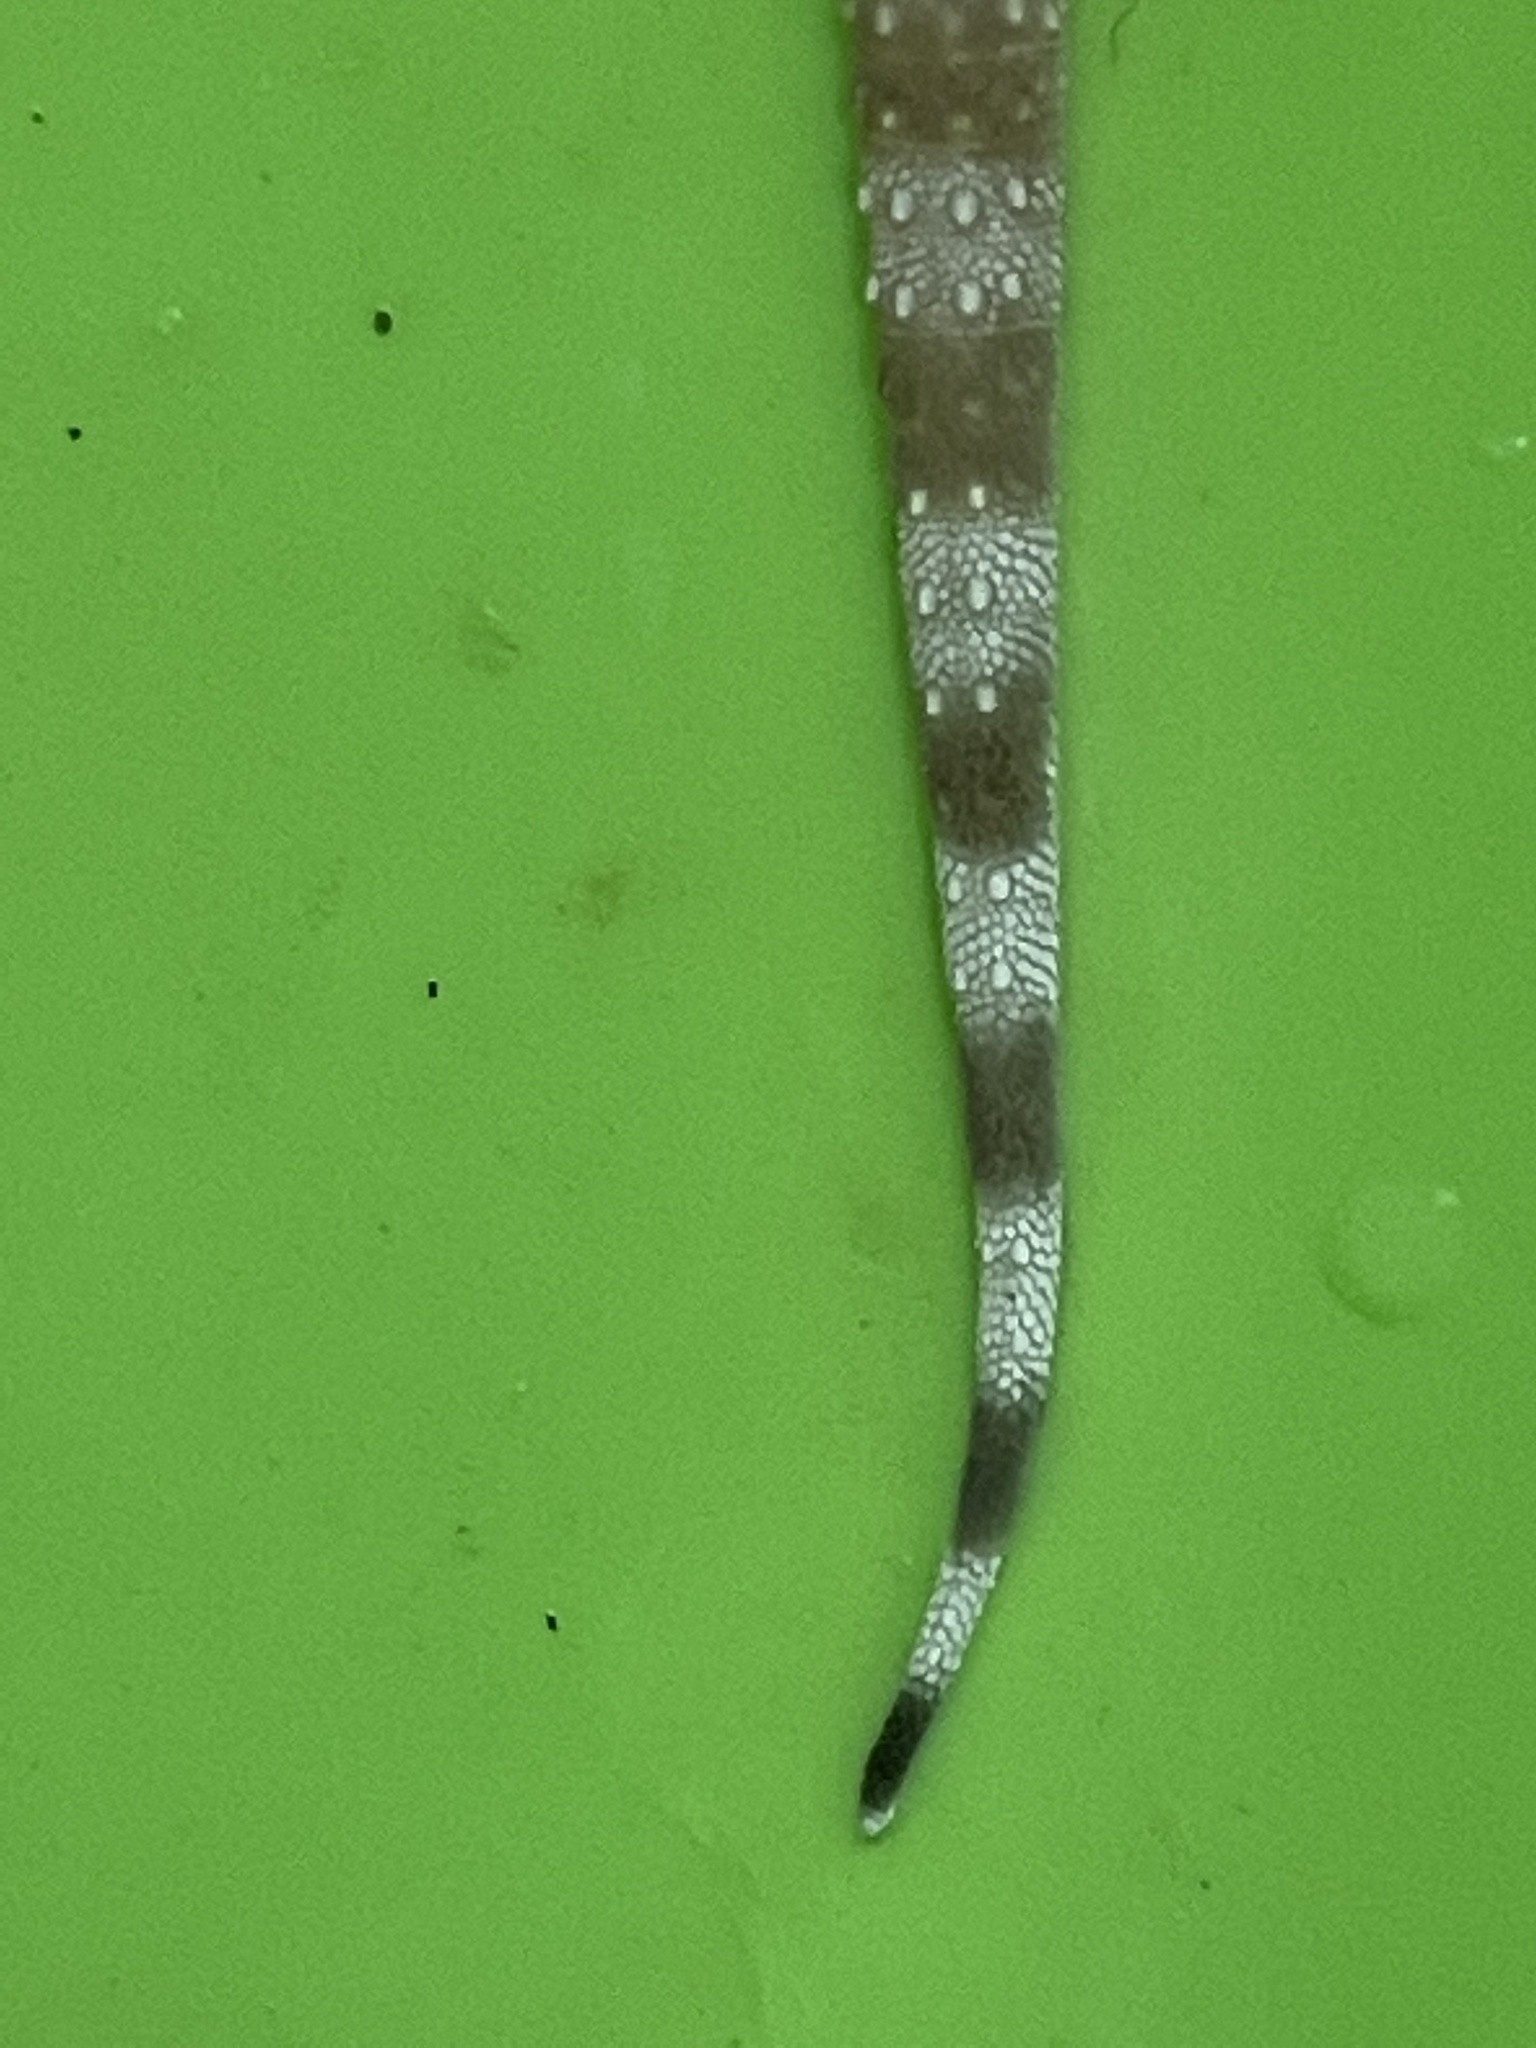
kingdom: Animalia
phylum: Chordata
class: Squamata
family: Gekkonidae
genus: Hemidactylus
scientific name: Hemidactylus turcicus
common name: Turkish gecko
